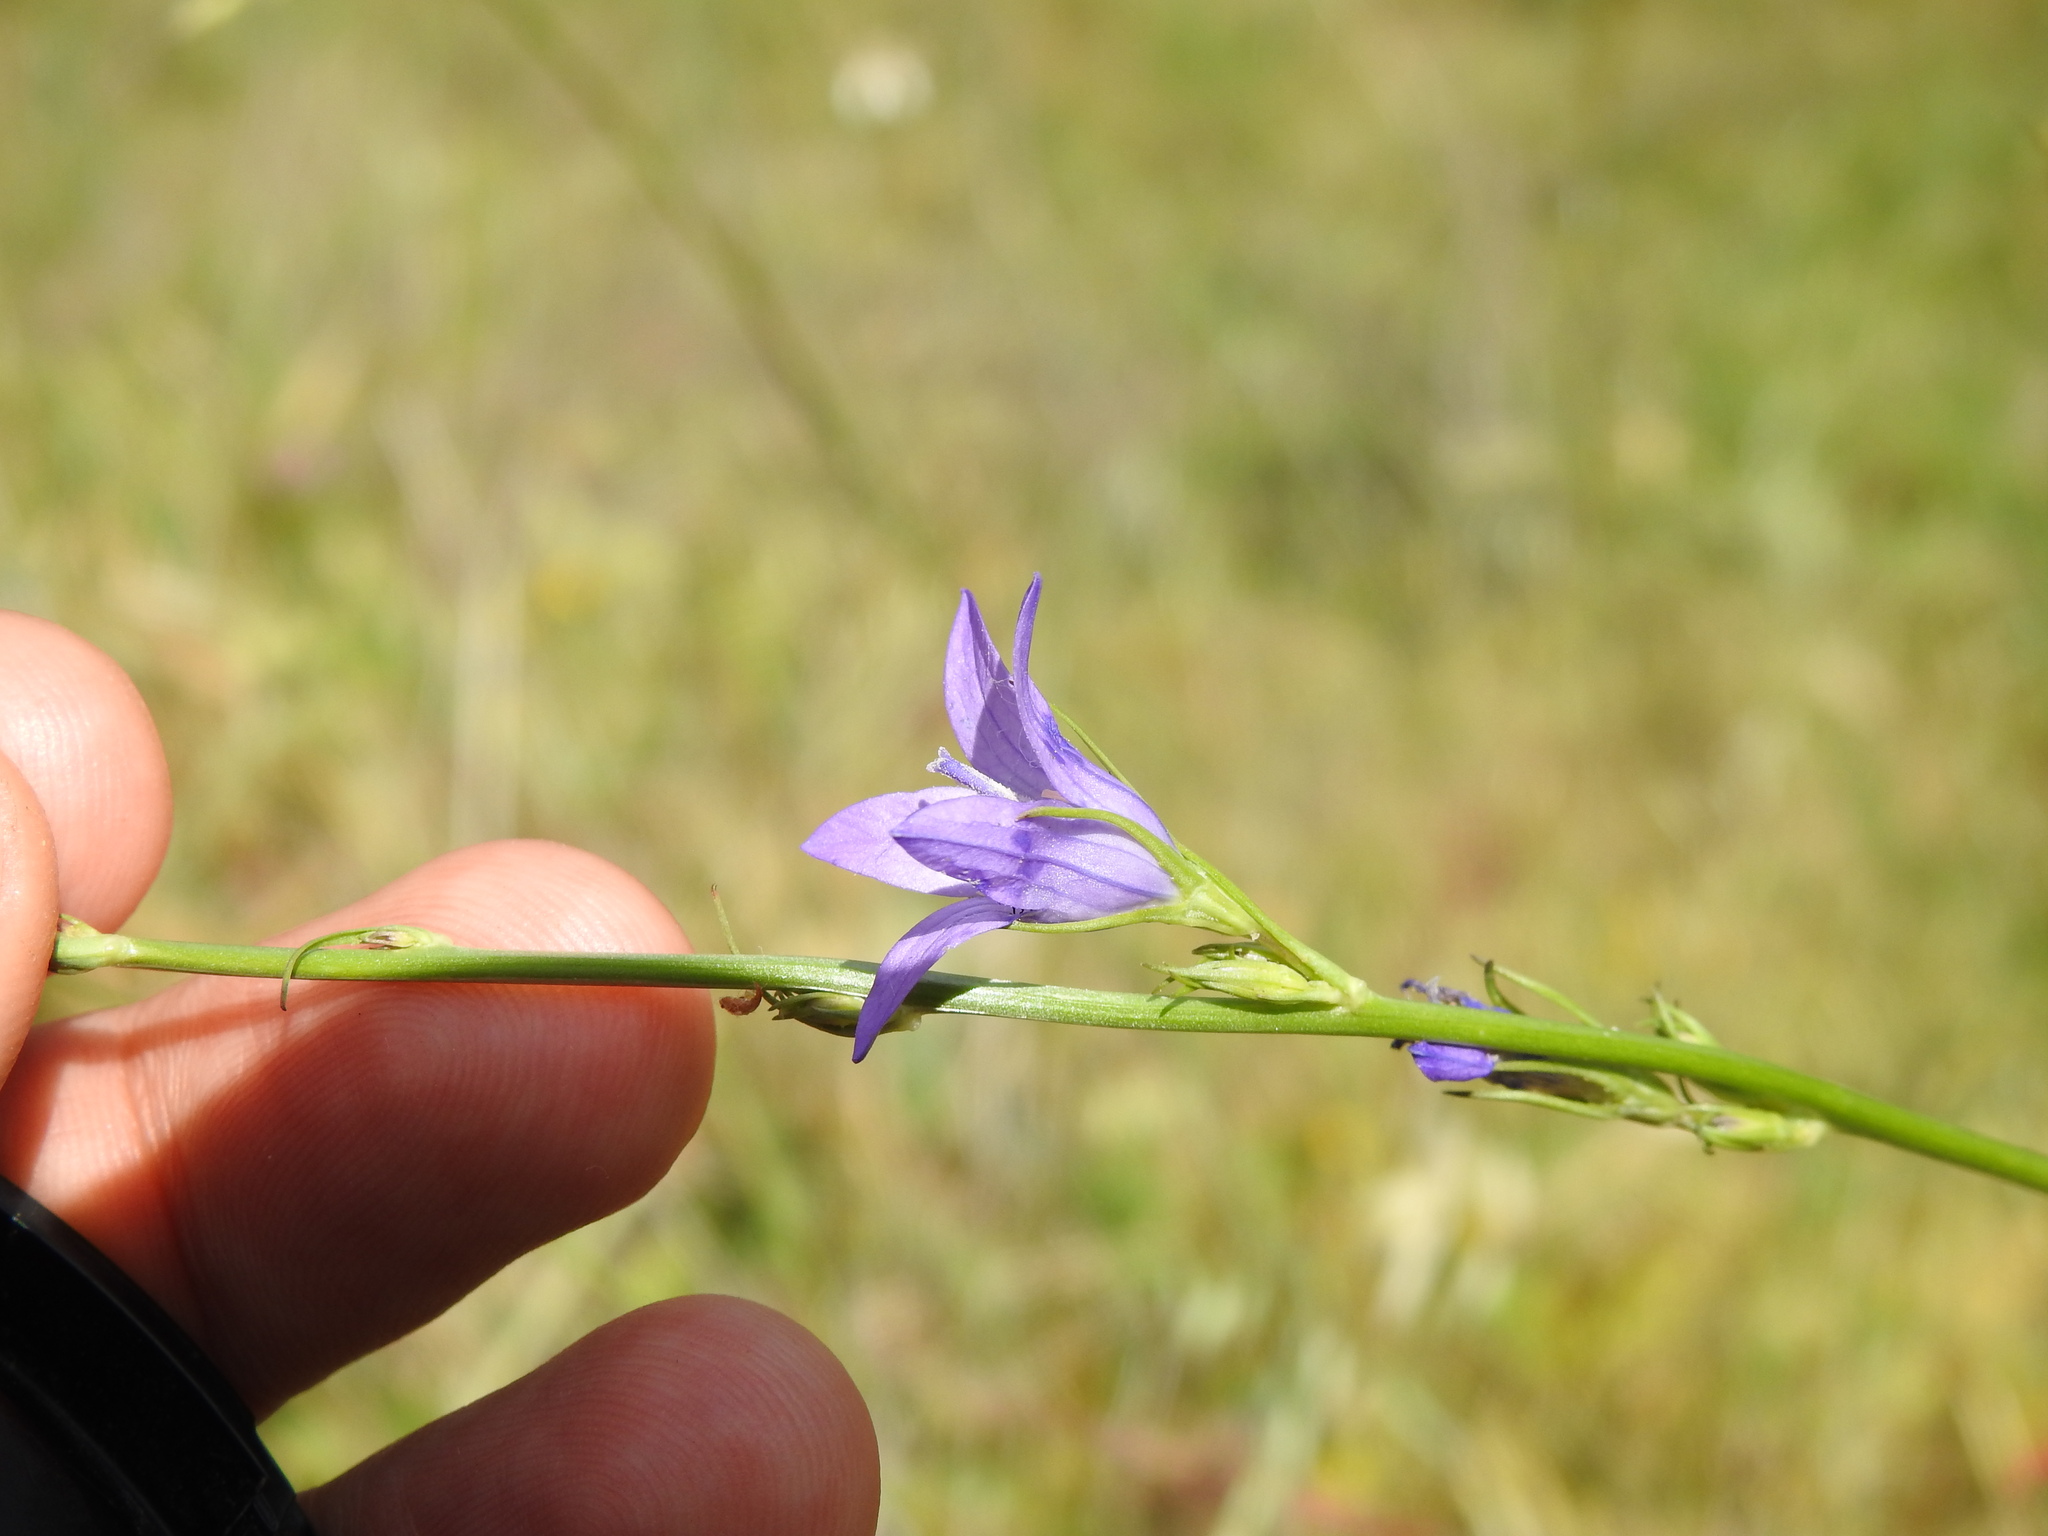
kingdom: Plantae
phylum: Tracheophyta
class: Magnoliopsida
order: Asterales
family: Campanulaceae
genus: Campanula
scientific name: Campanula rapunculus
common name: Rampion bellflower
